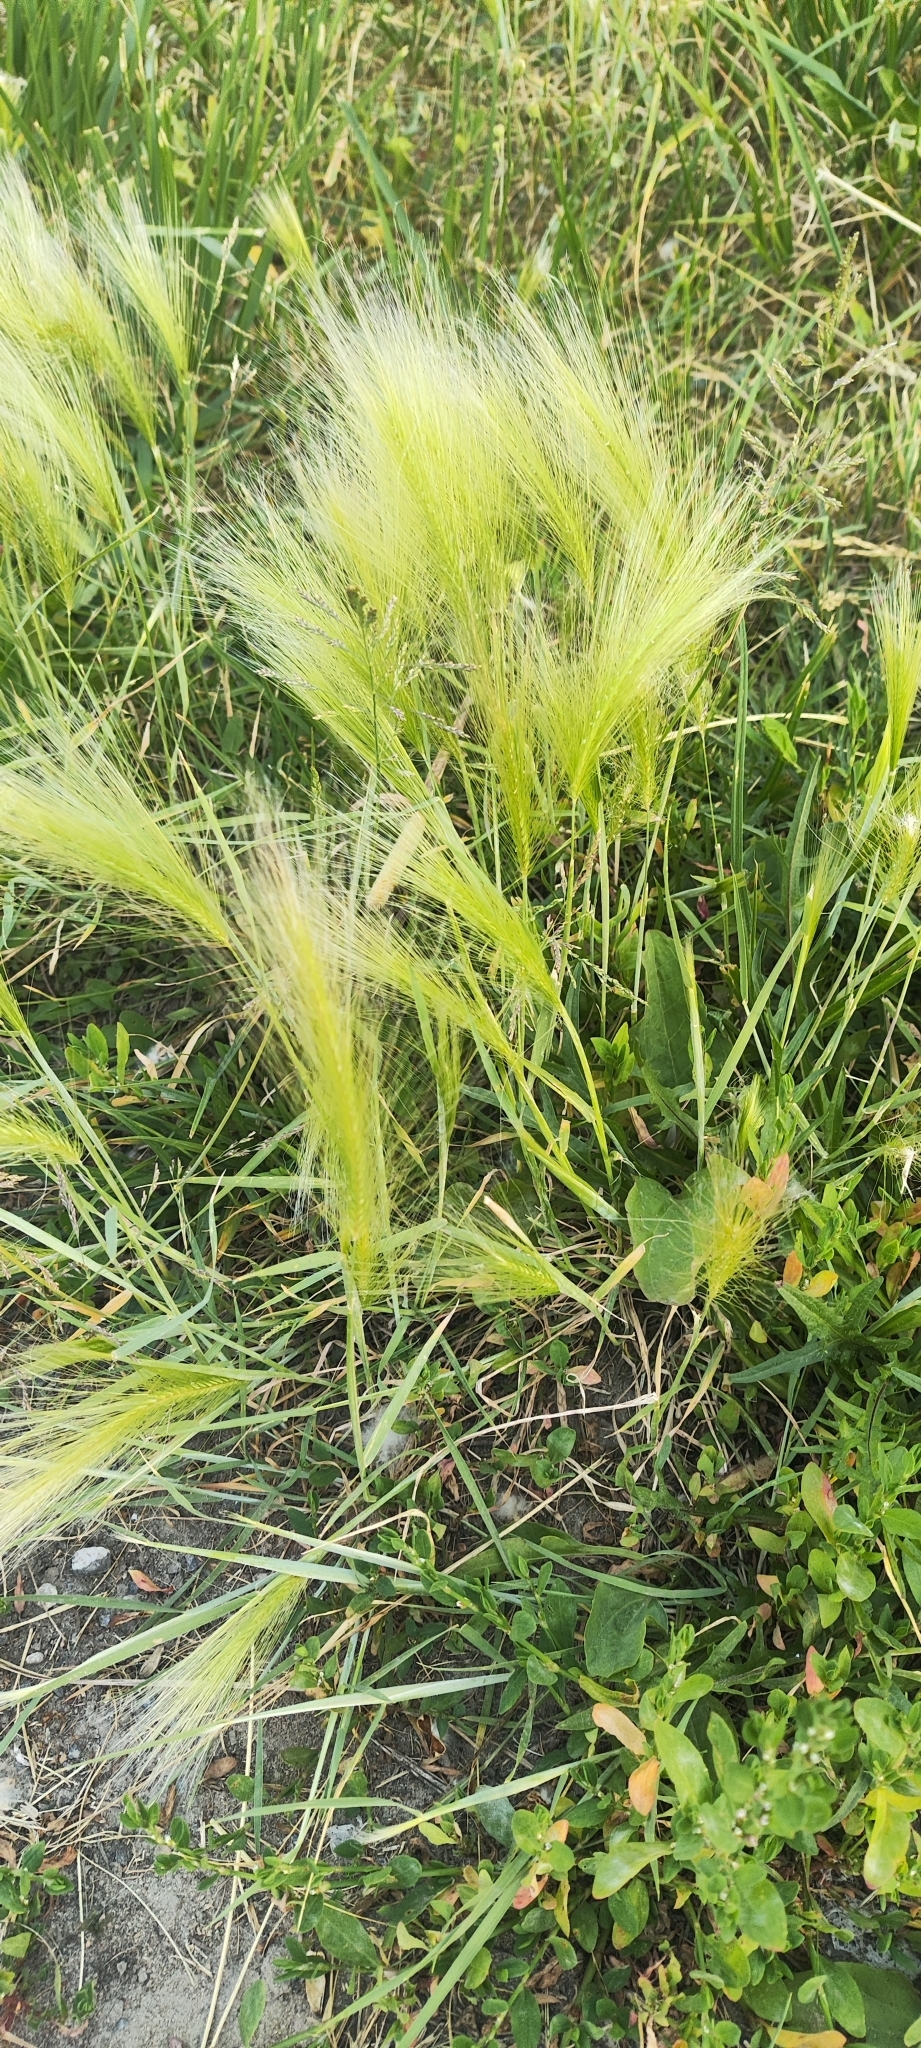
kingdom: Plantae
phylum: Tracheophyta
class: Liliopsida
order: Poales
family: Poaceae
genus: Hordeum
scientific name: Hordeum jubatum
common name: Foxtail barley
